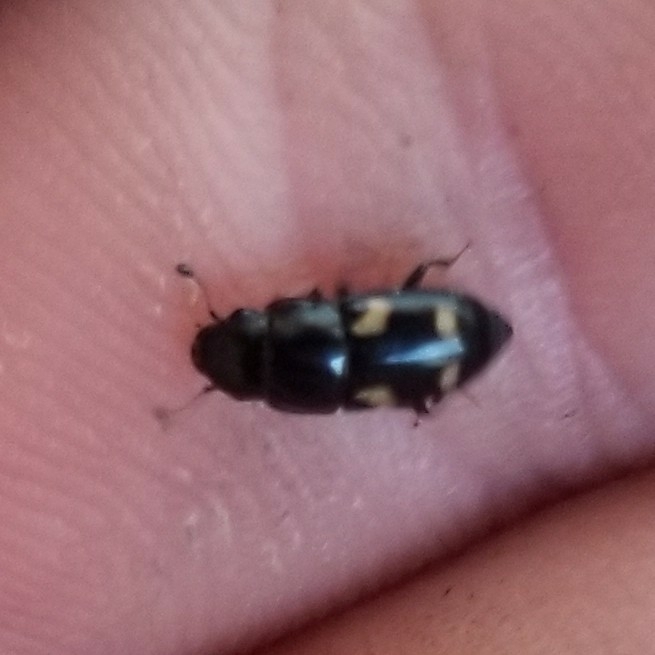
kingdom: Animalia
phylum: Arthropoda
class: Insecta
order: Coleoptera
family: Nitidulidae
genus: Glischrochilus
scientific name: Glischrochilus quadrisignatus
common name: Picnic beetle
